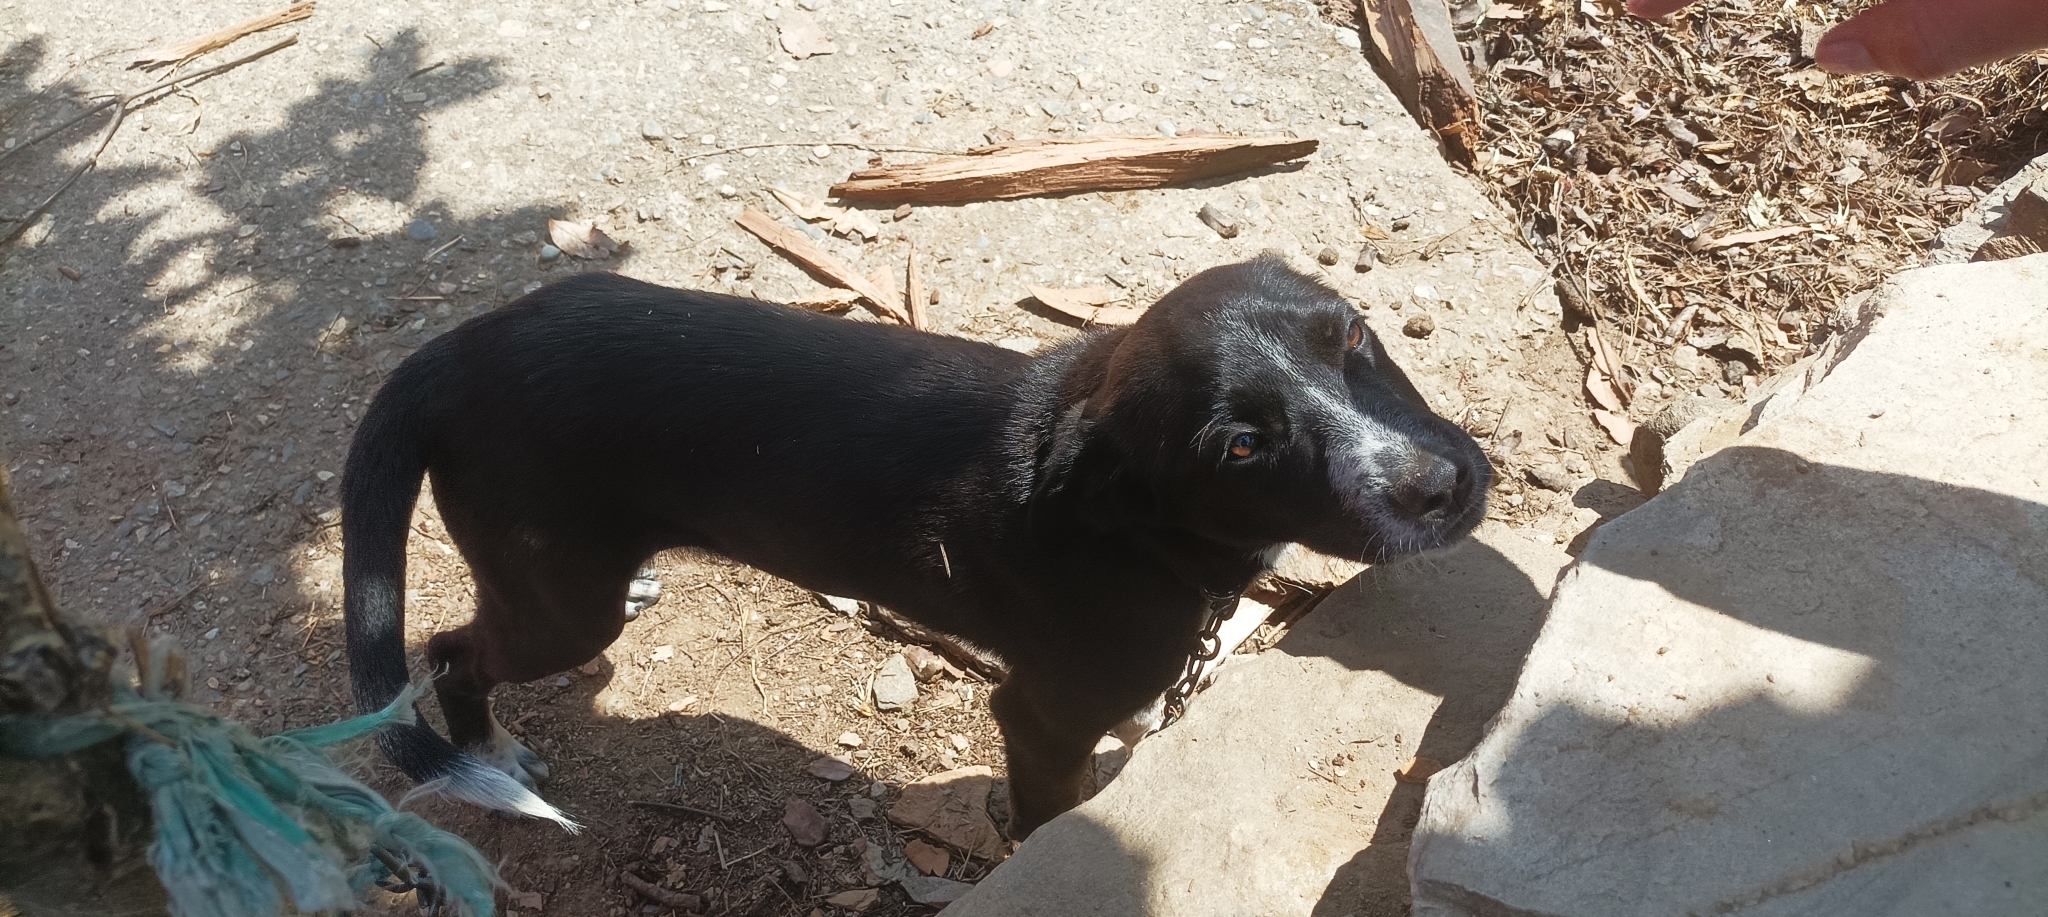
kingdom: Animalia
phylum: Chordata
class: Mammalia
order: Carnivora
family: Canidae
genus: Canis
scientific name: Canis lupus
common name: Gray wolf
